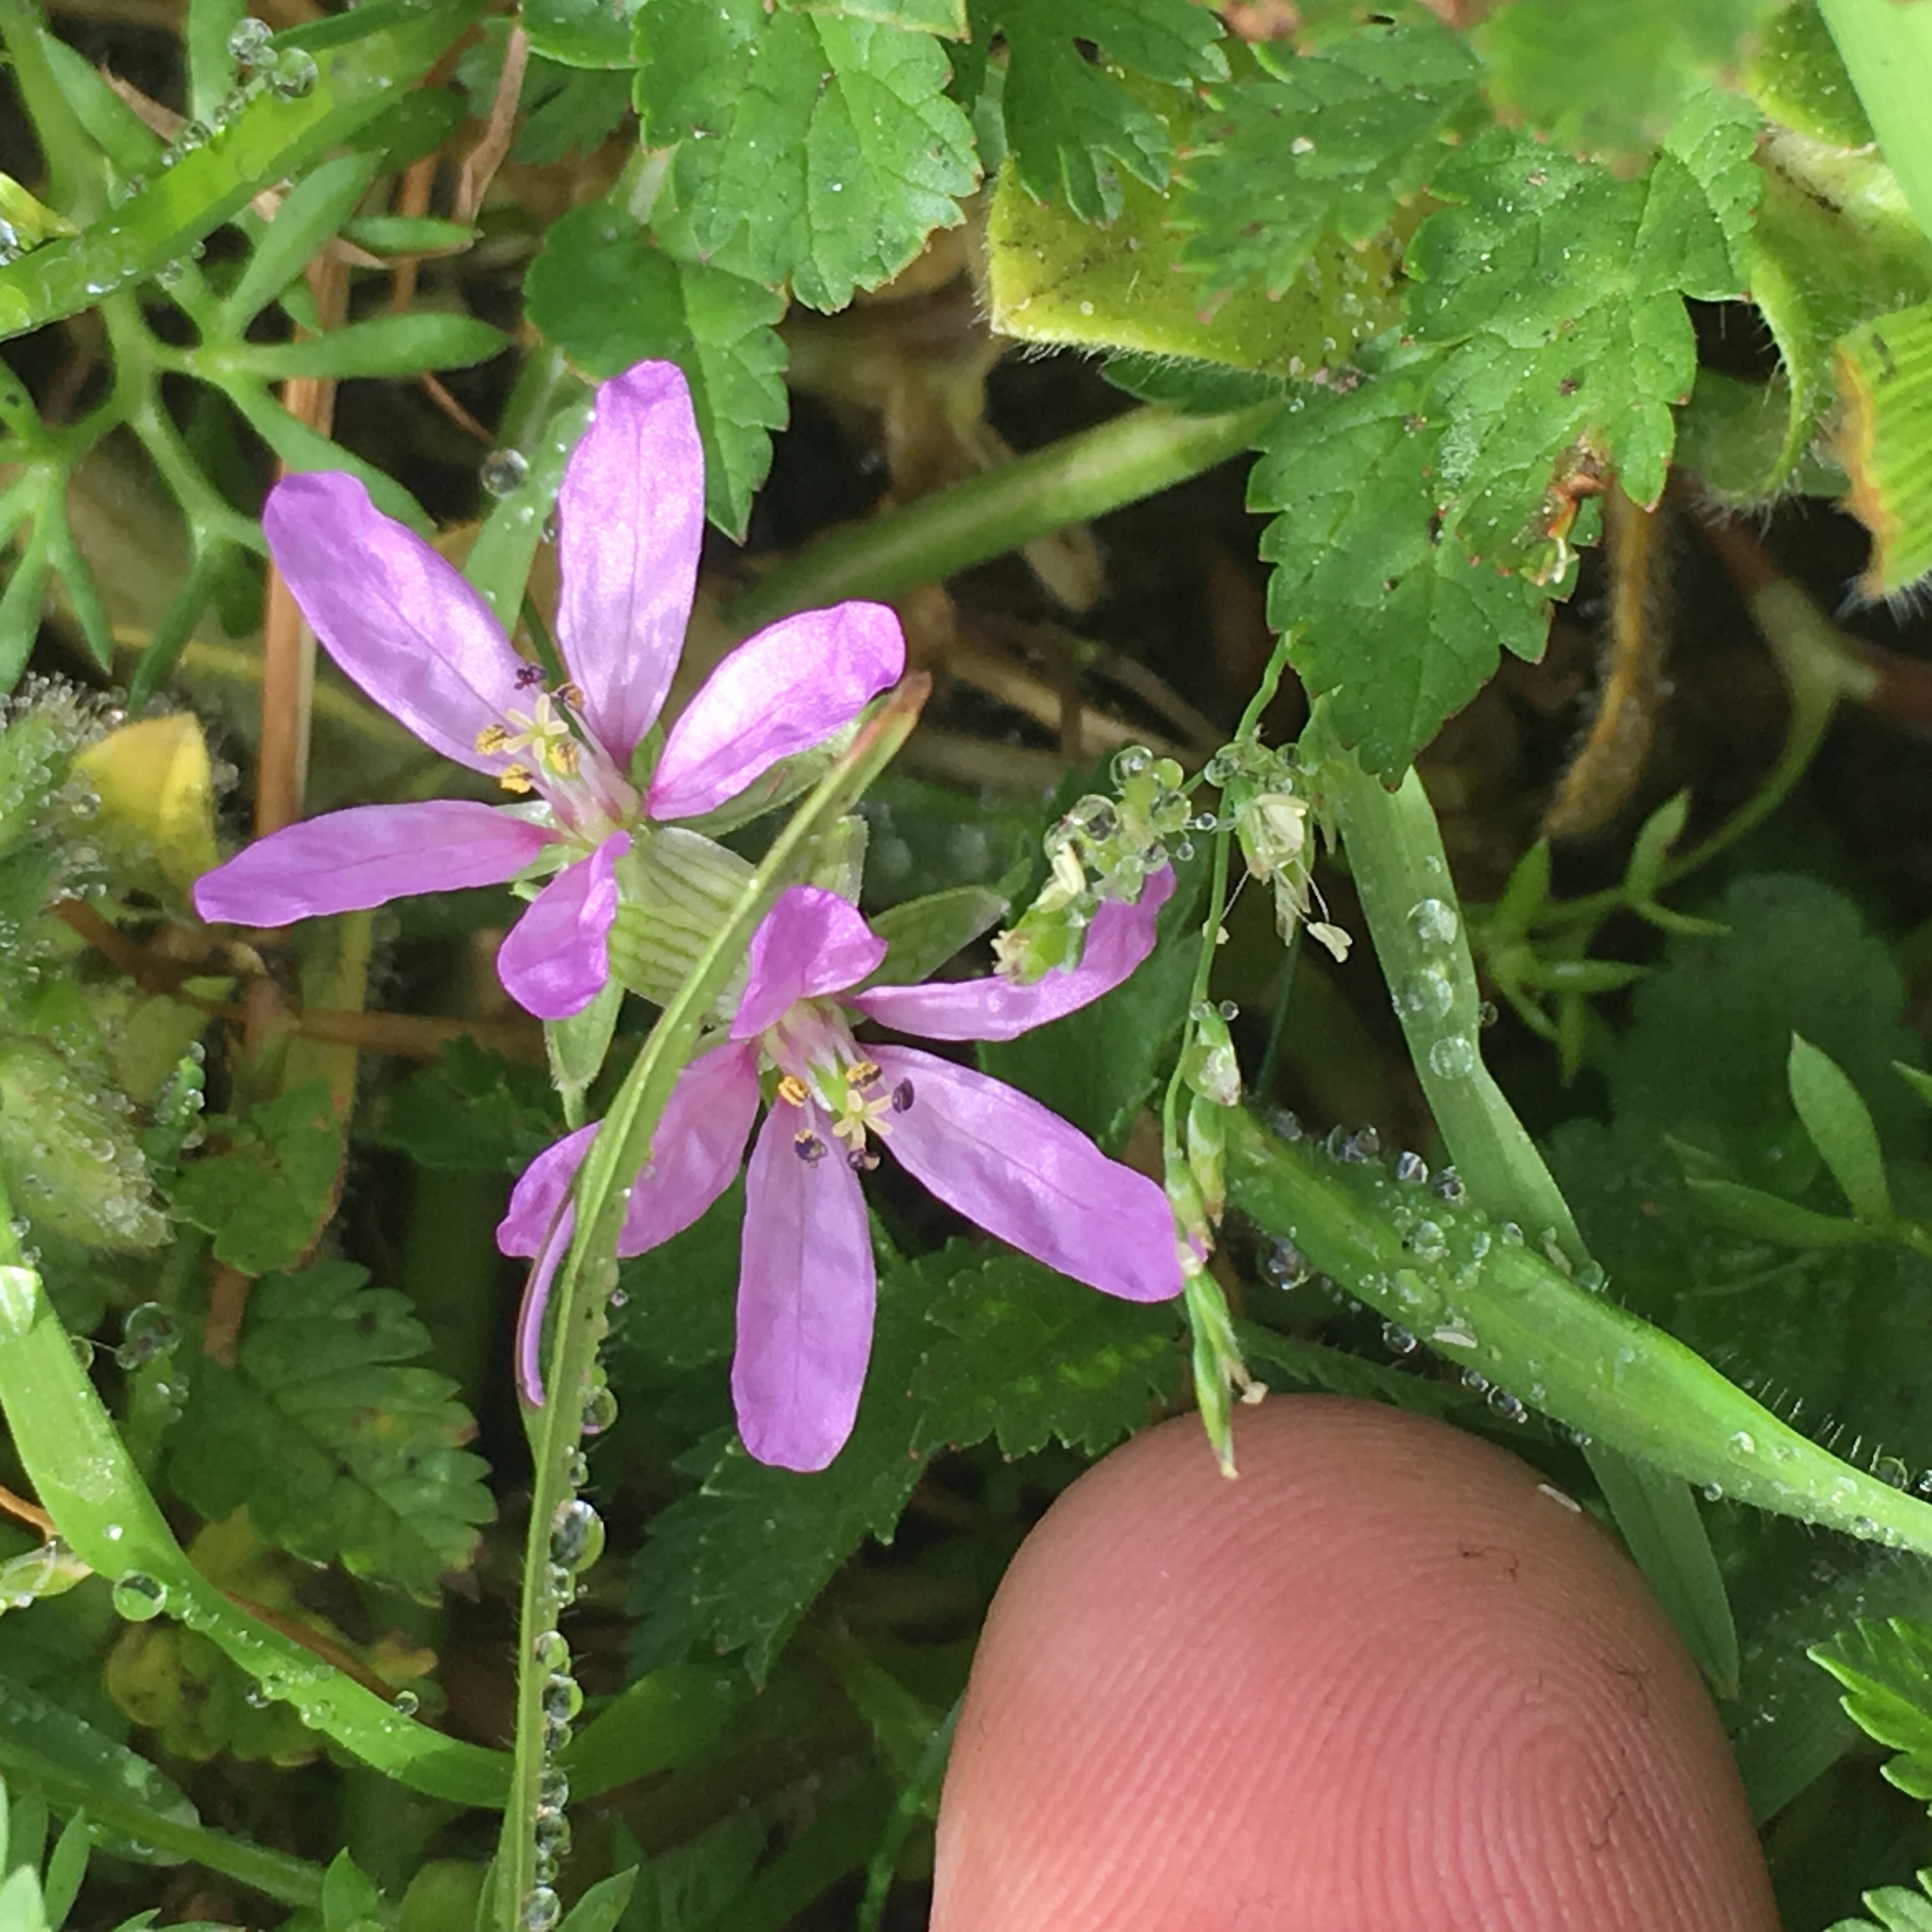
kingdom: Plantae
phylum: Tracheophyta
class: Magnoliopsida
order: Geraniales
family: Geraniaceae
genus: Erodium
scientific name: Erodium moschatum
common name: Musk stork's-bill
